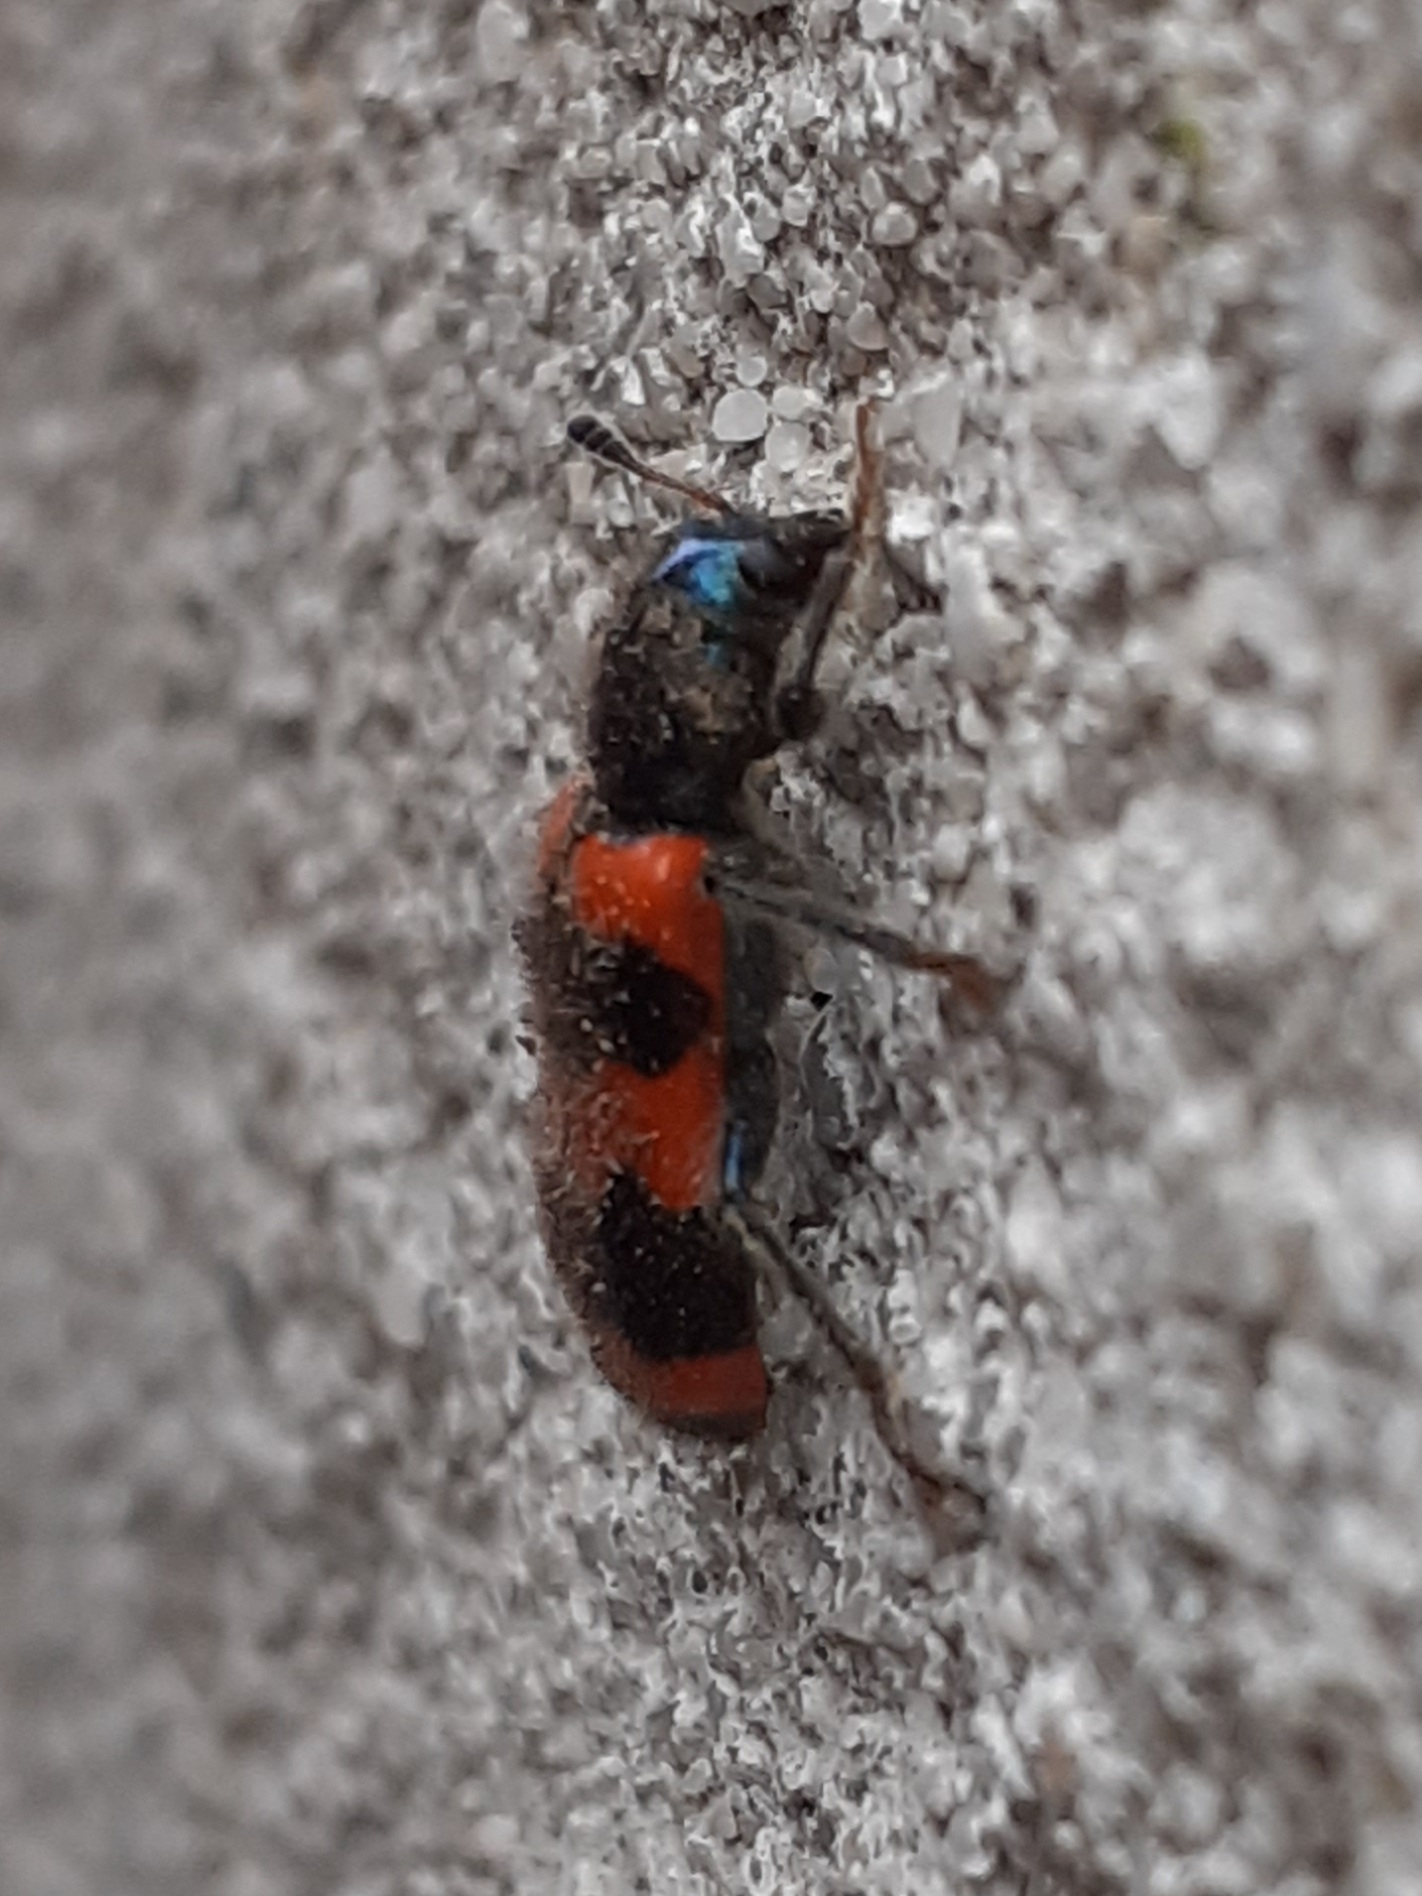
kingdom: Animalia
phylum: Arthropoda
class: Insecta
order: Coleoptera
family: Cleridae
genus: Trichodes
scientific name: Trichodes apiarius
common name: Bee-eating beetle
